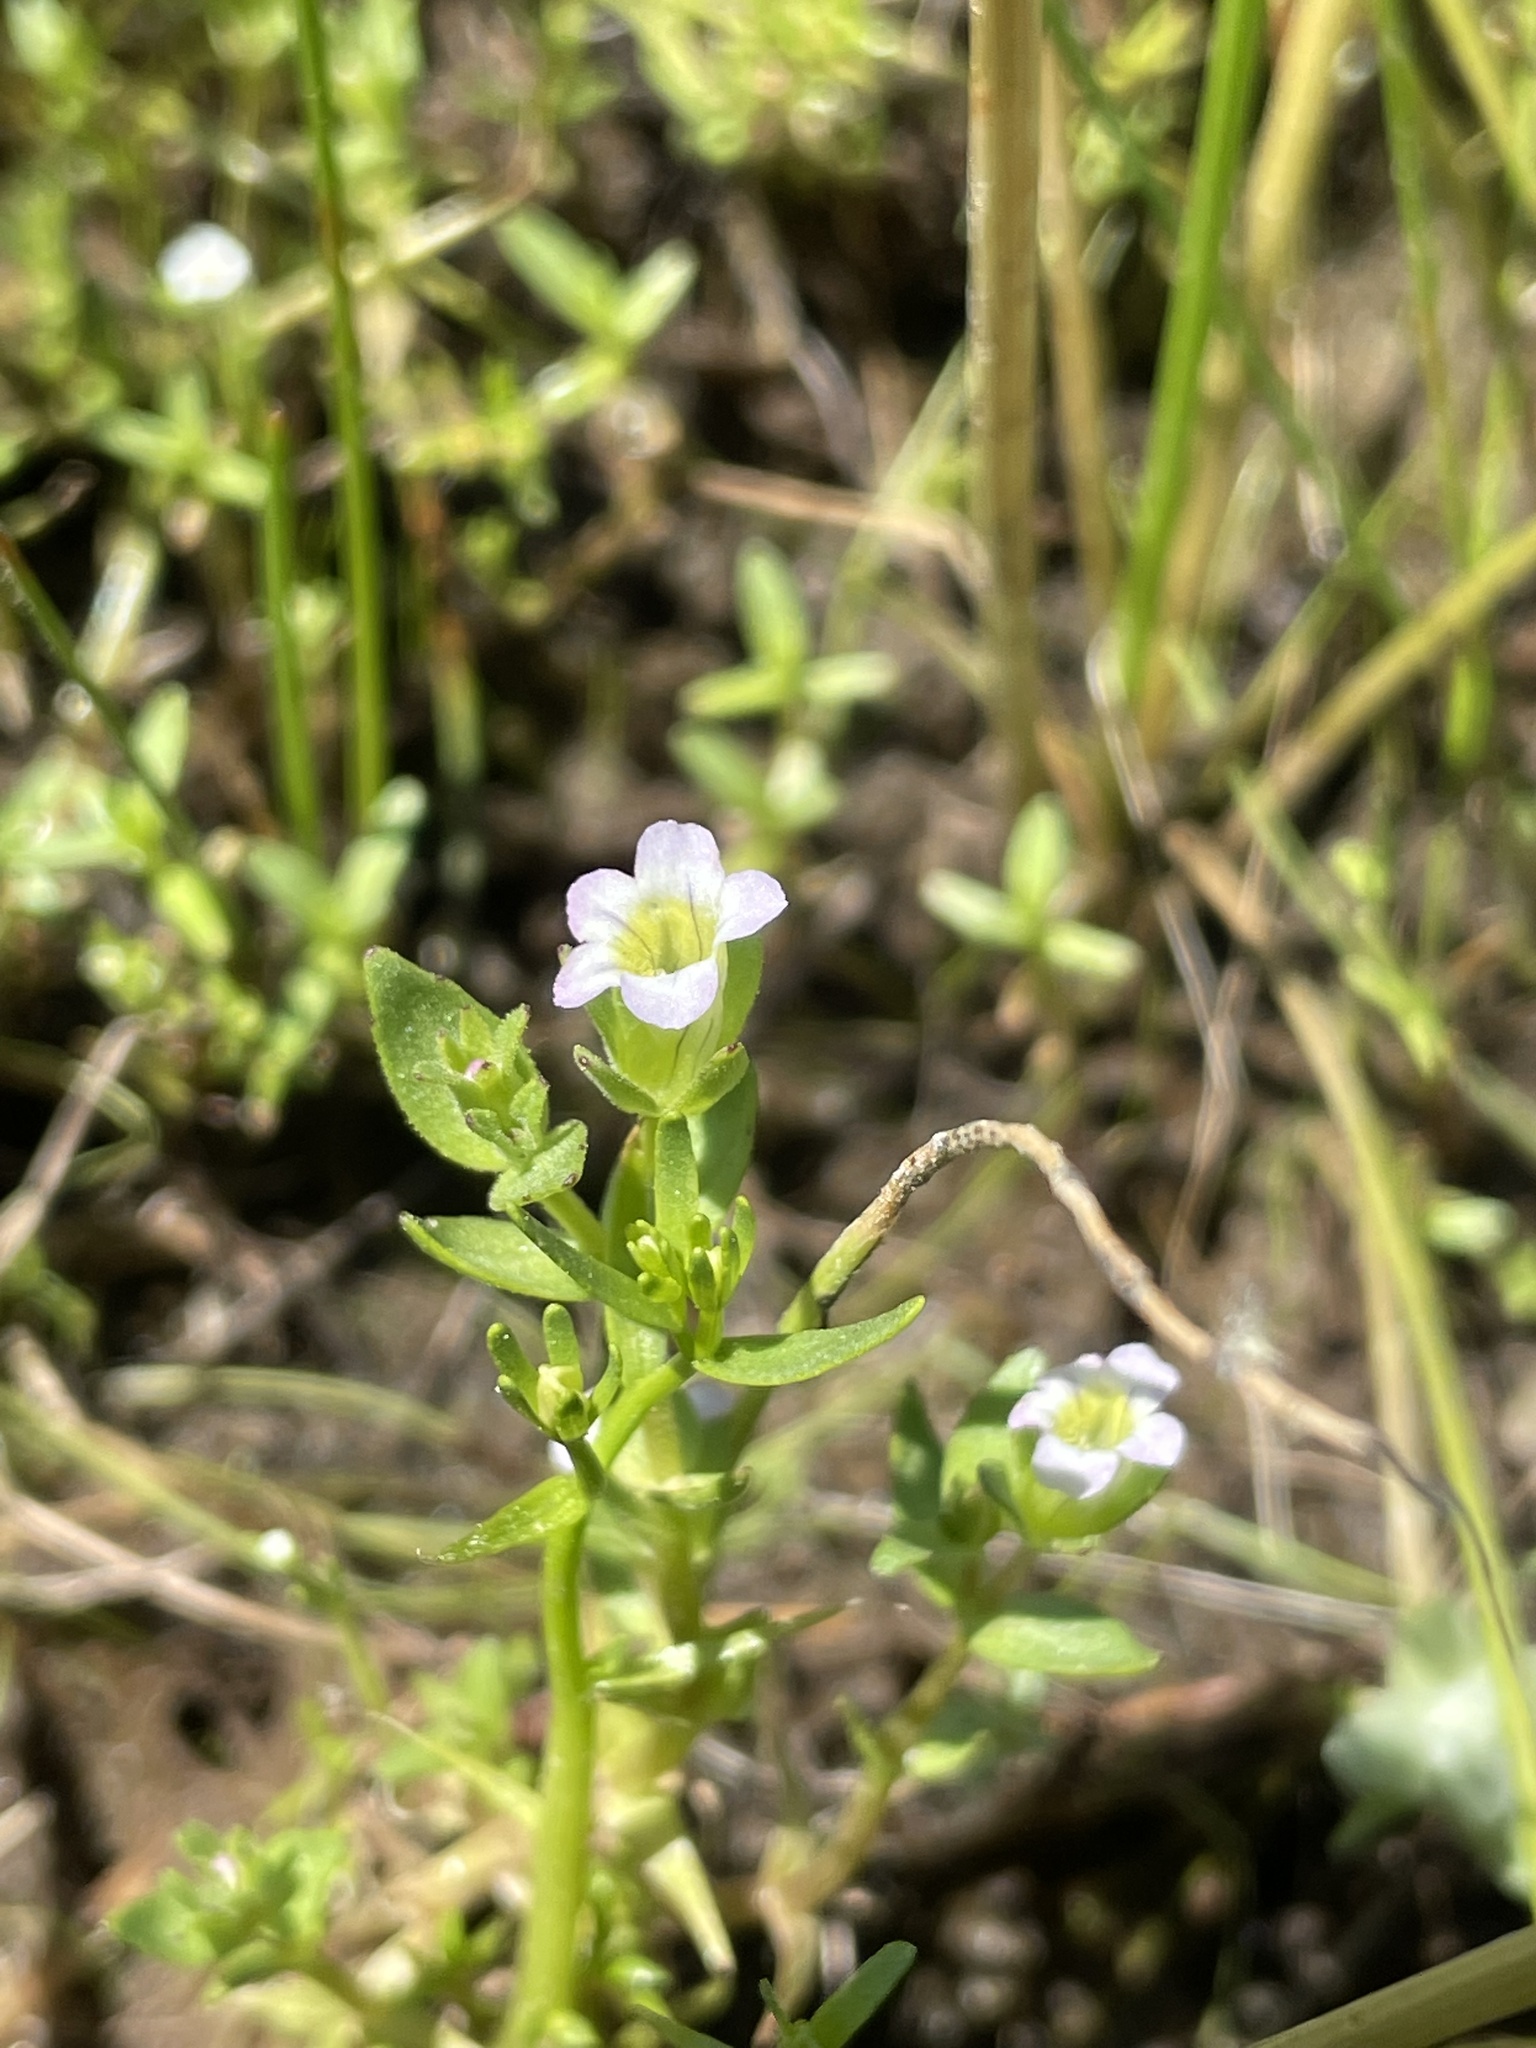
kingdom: Plantae
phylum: Tracheophyta
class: Magnoliopsida
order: Lamiales
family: Plantaginaceae
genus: Gratiola
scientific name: Gratiola ebracteata
